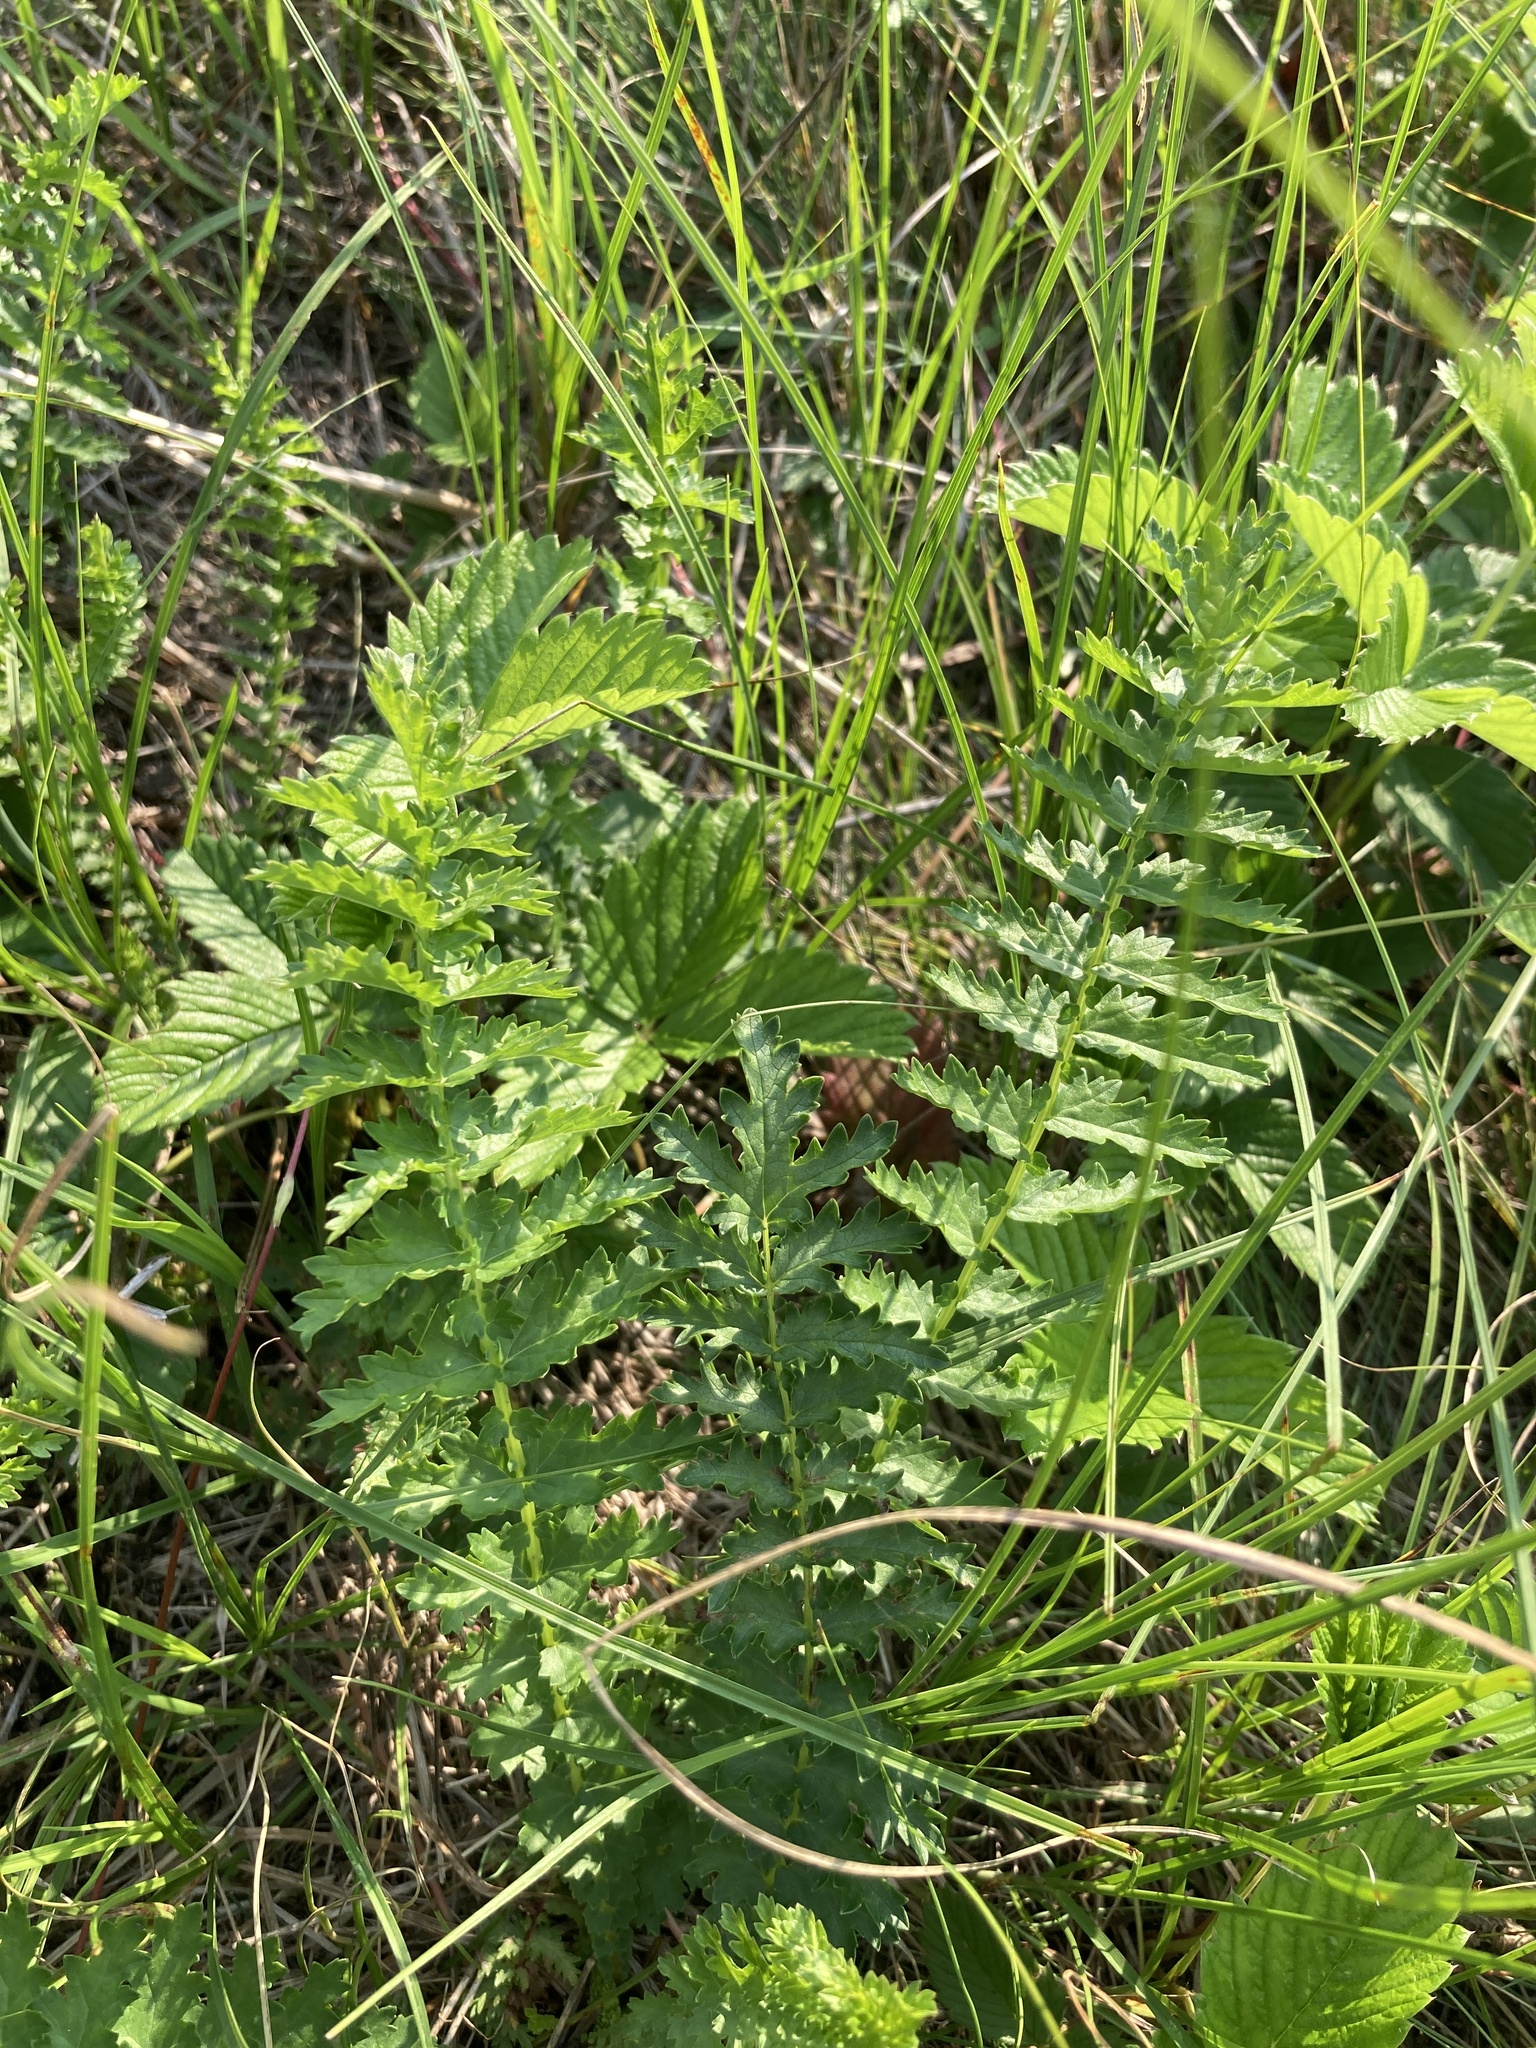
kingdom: Plantae
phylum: Tracheophyta
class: Magnoliopsida
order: Rosales
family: Rosaceae
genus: Filipendula
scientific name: Filipendula vulgaris
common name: Dropwort
